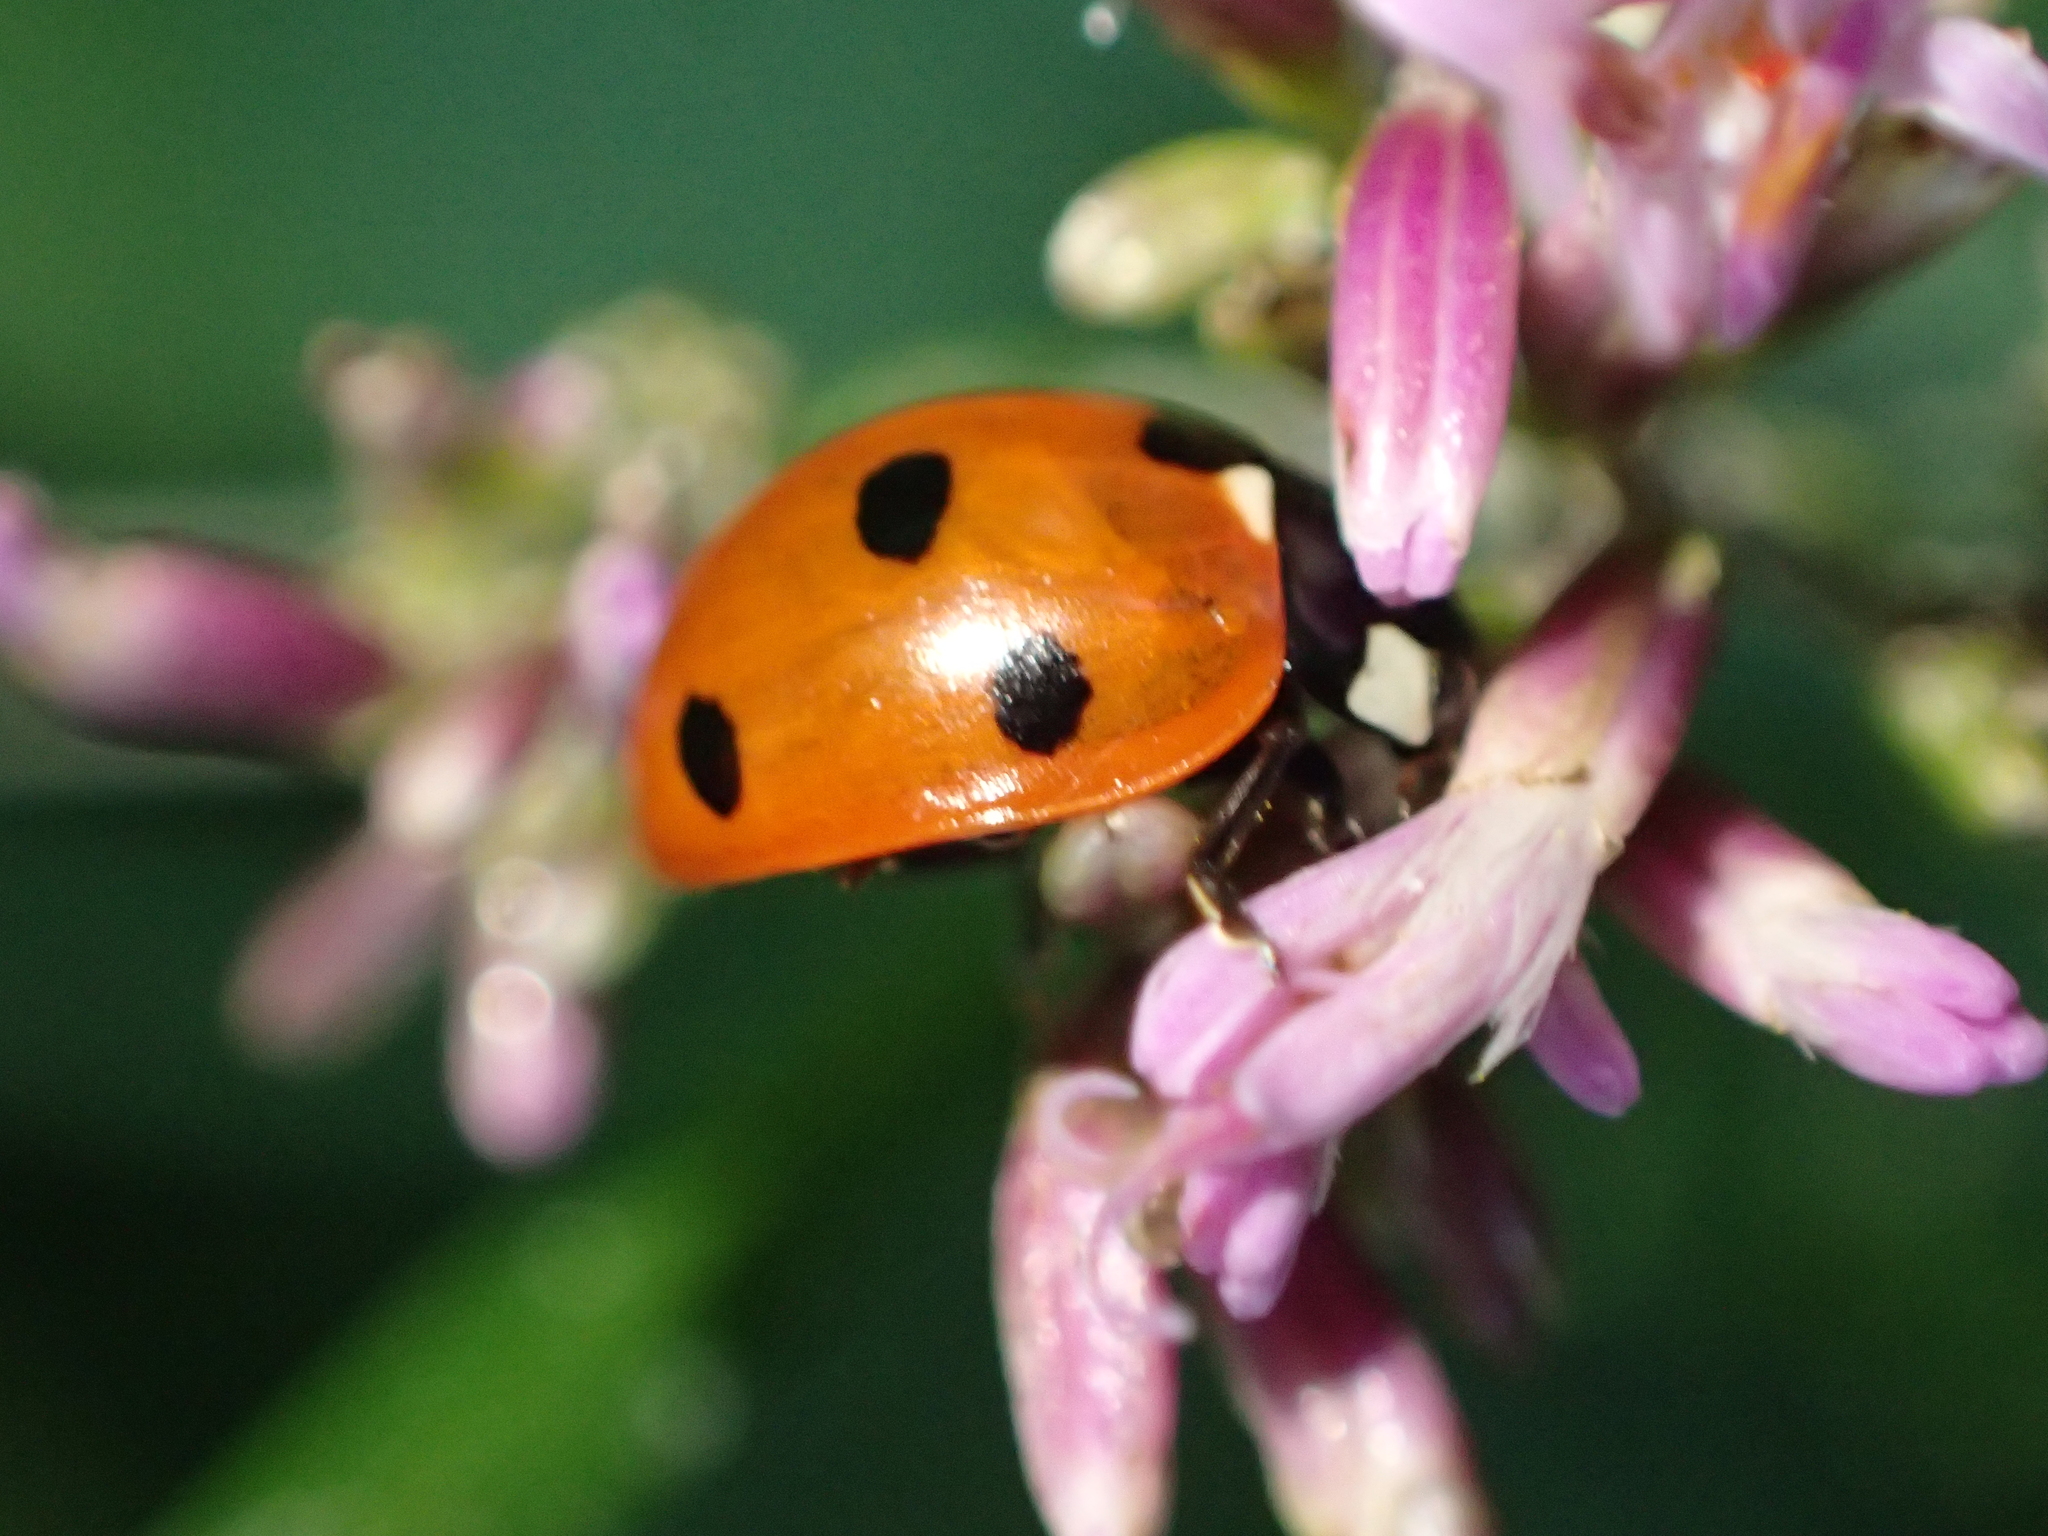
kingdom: Animalia
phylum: Arthropoda
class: Insecta
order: Coleoptera
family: Coccinellidae
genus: Coccinella
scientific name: Coccinella septempunctata
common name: Sevenspotted lady beetle
